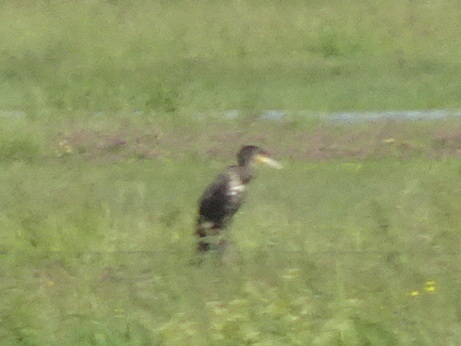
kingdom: Animalia
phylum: Chordata
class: Aves
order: Suliformes
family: Phalacrocoracidae
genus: Phalacrocorax
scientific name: Phalacrocorax carbo
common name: Great cormorant
